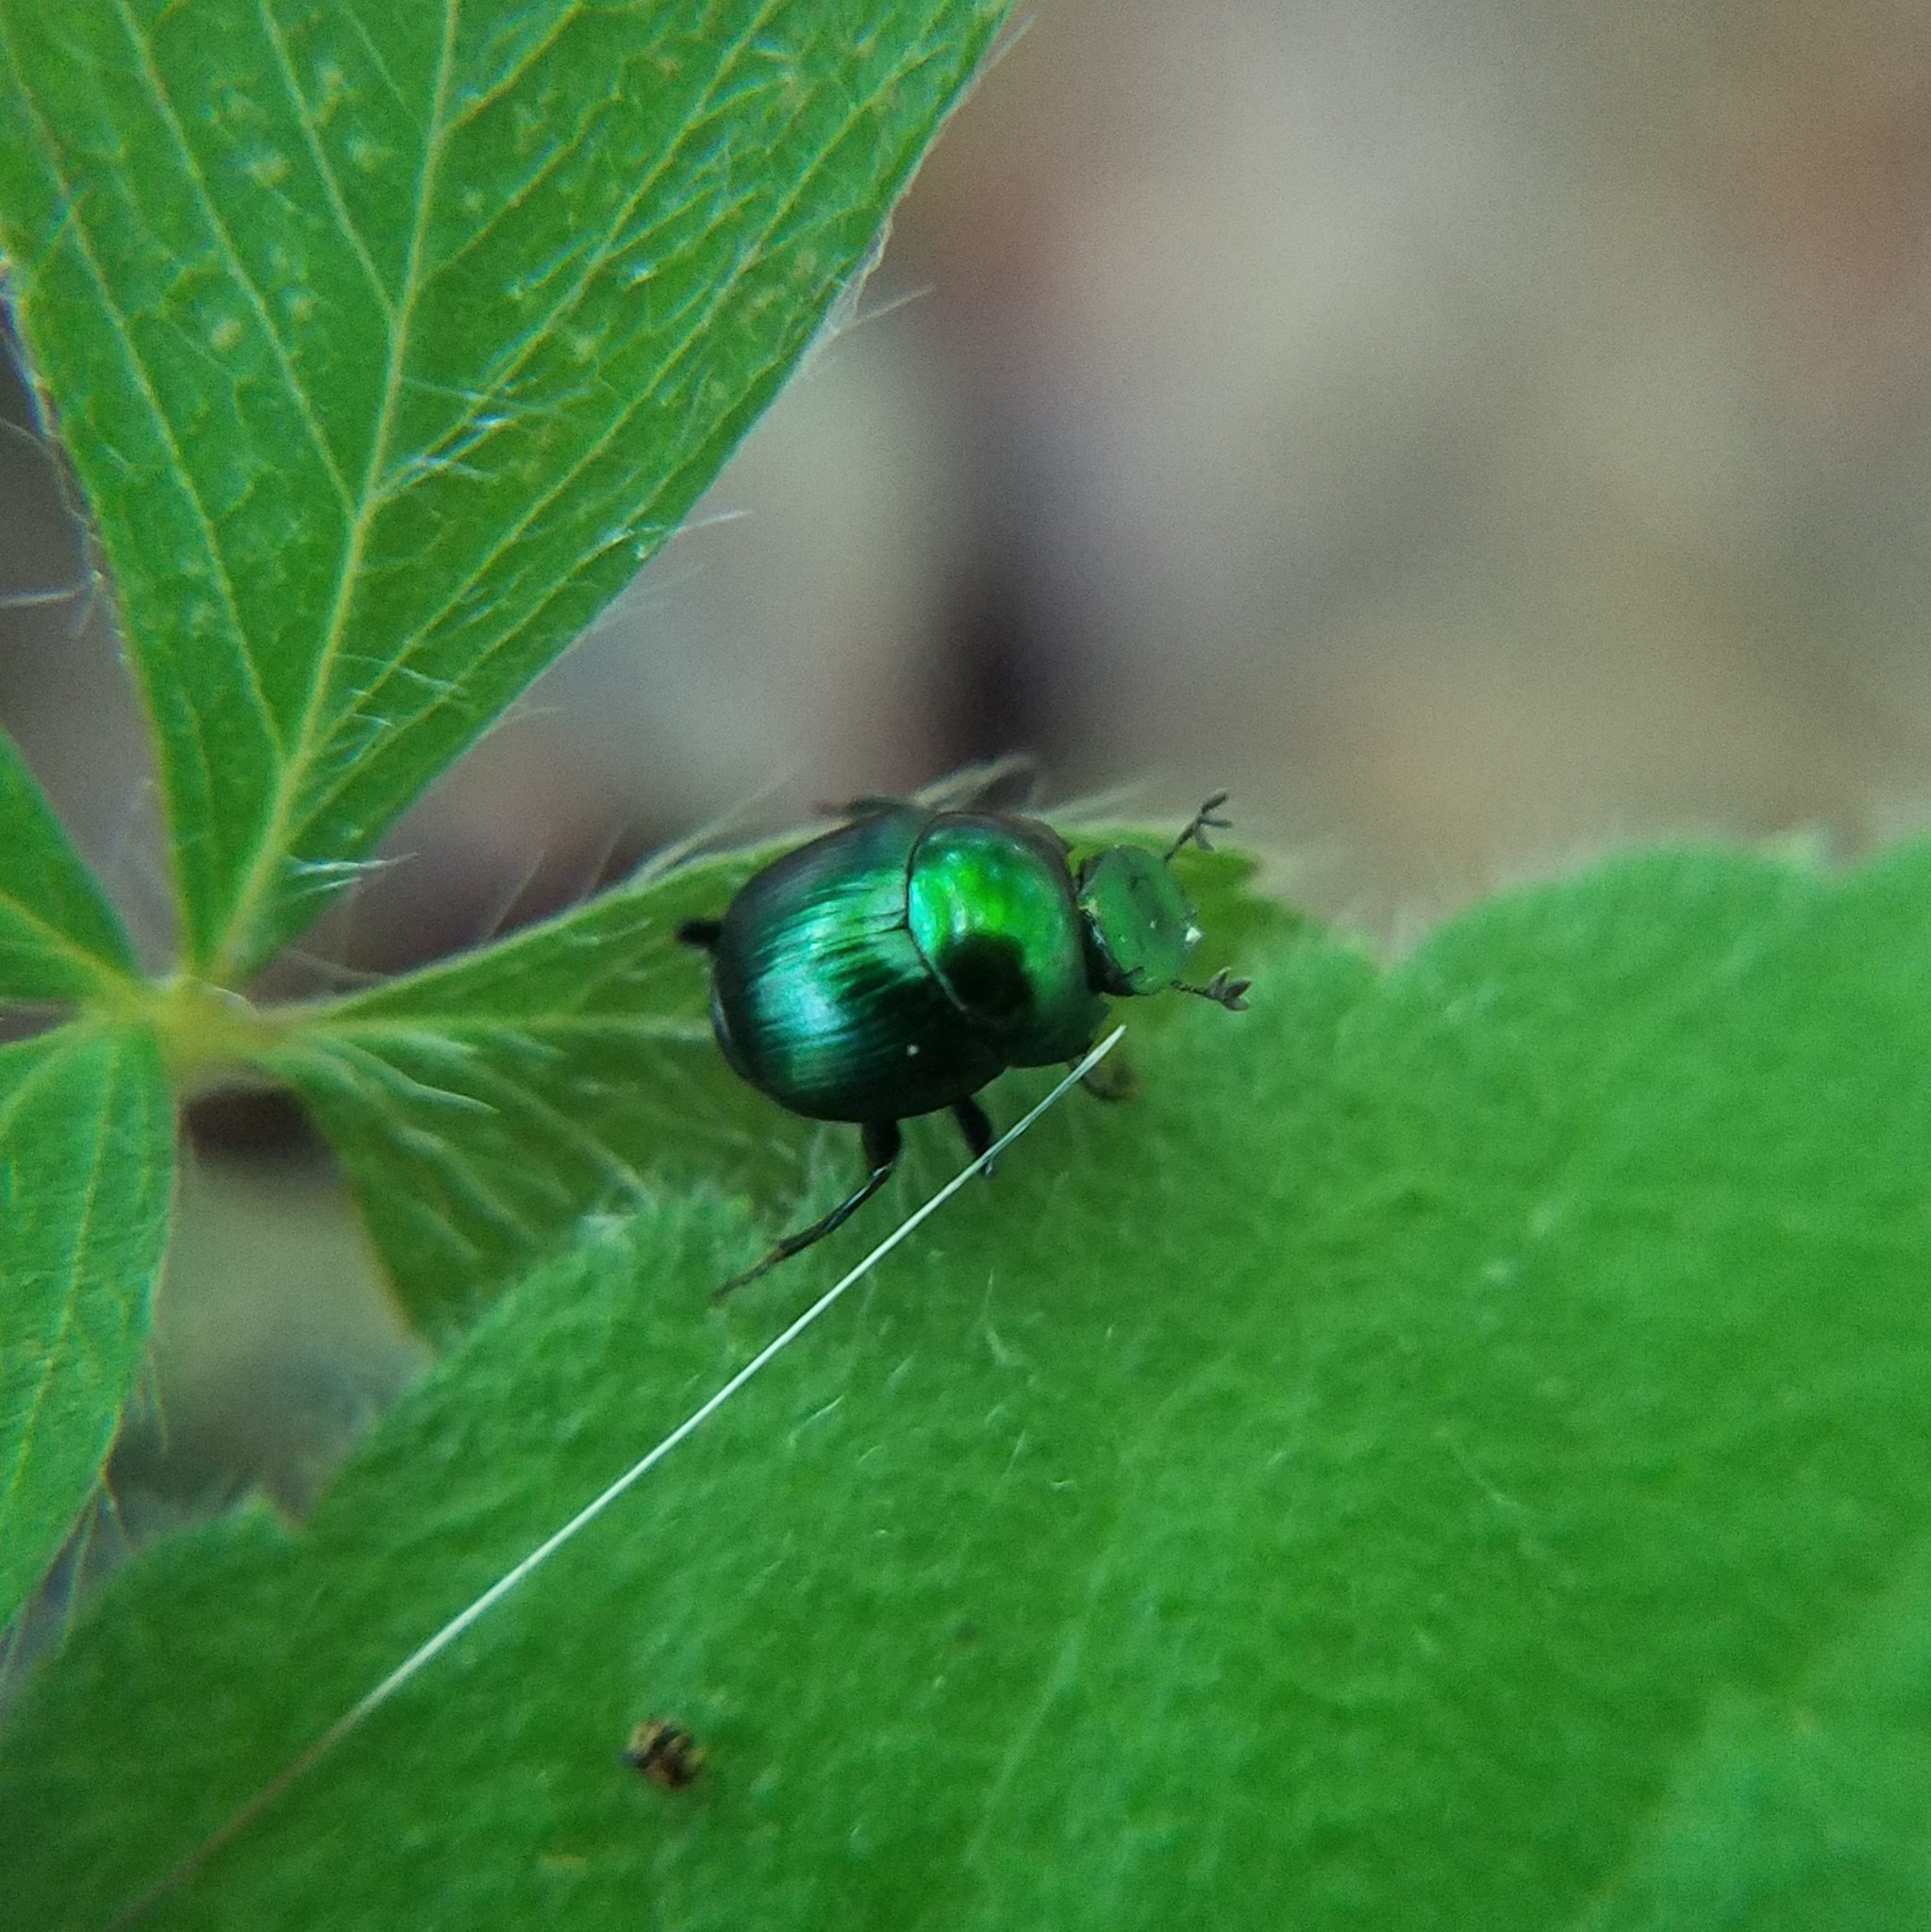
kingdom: Animalia
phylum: Arthropoda
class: Insecta
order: Coleoptera
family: Scarabaeidae
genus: Canthon
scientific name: Canthon viridis
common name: Tumblebug
